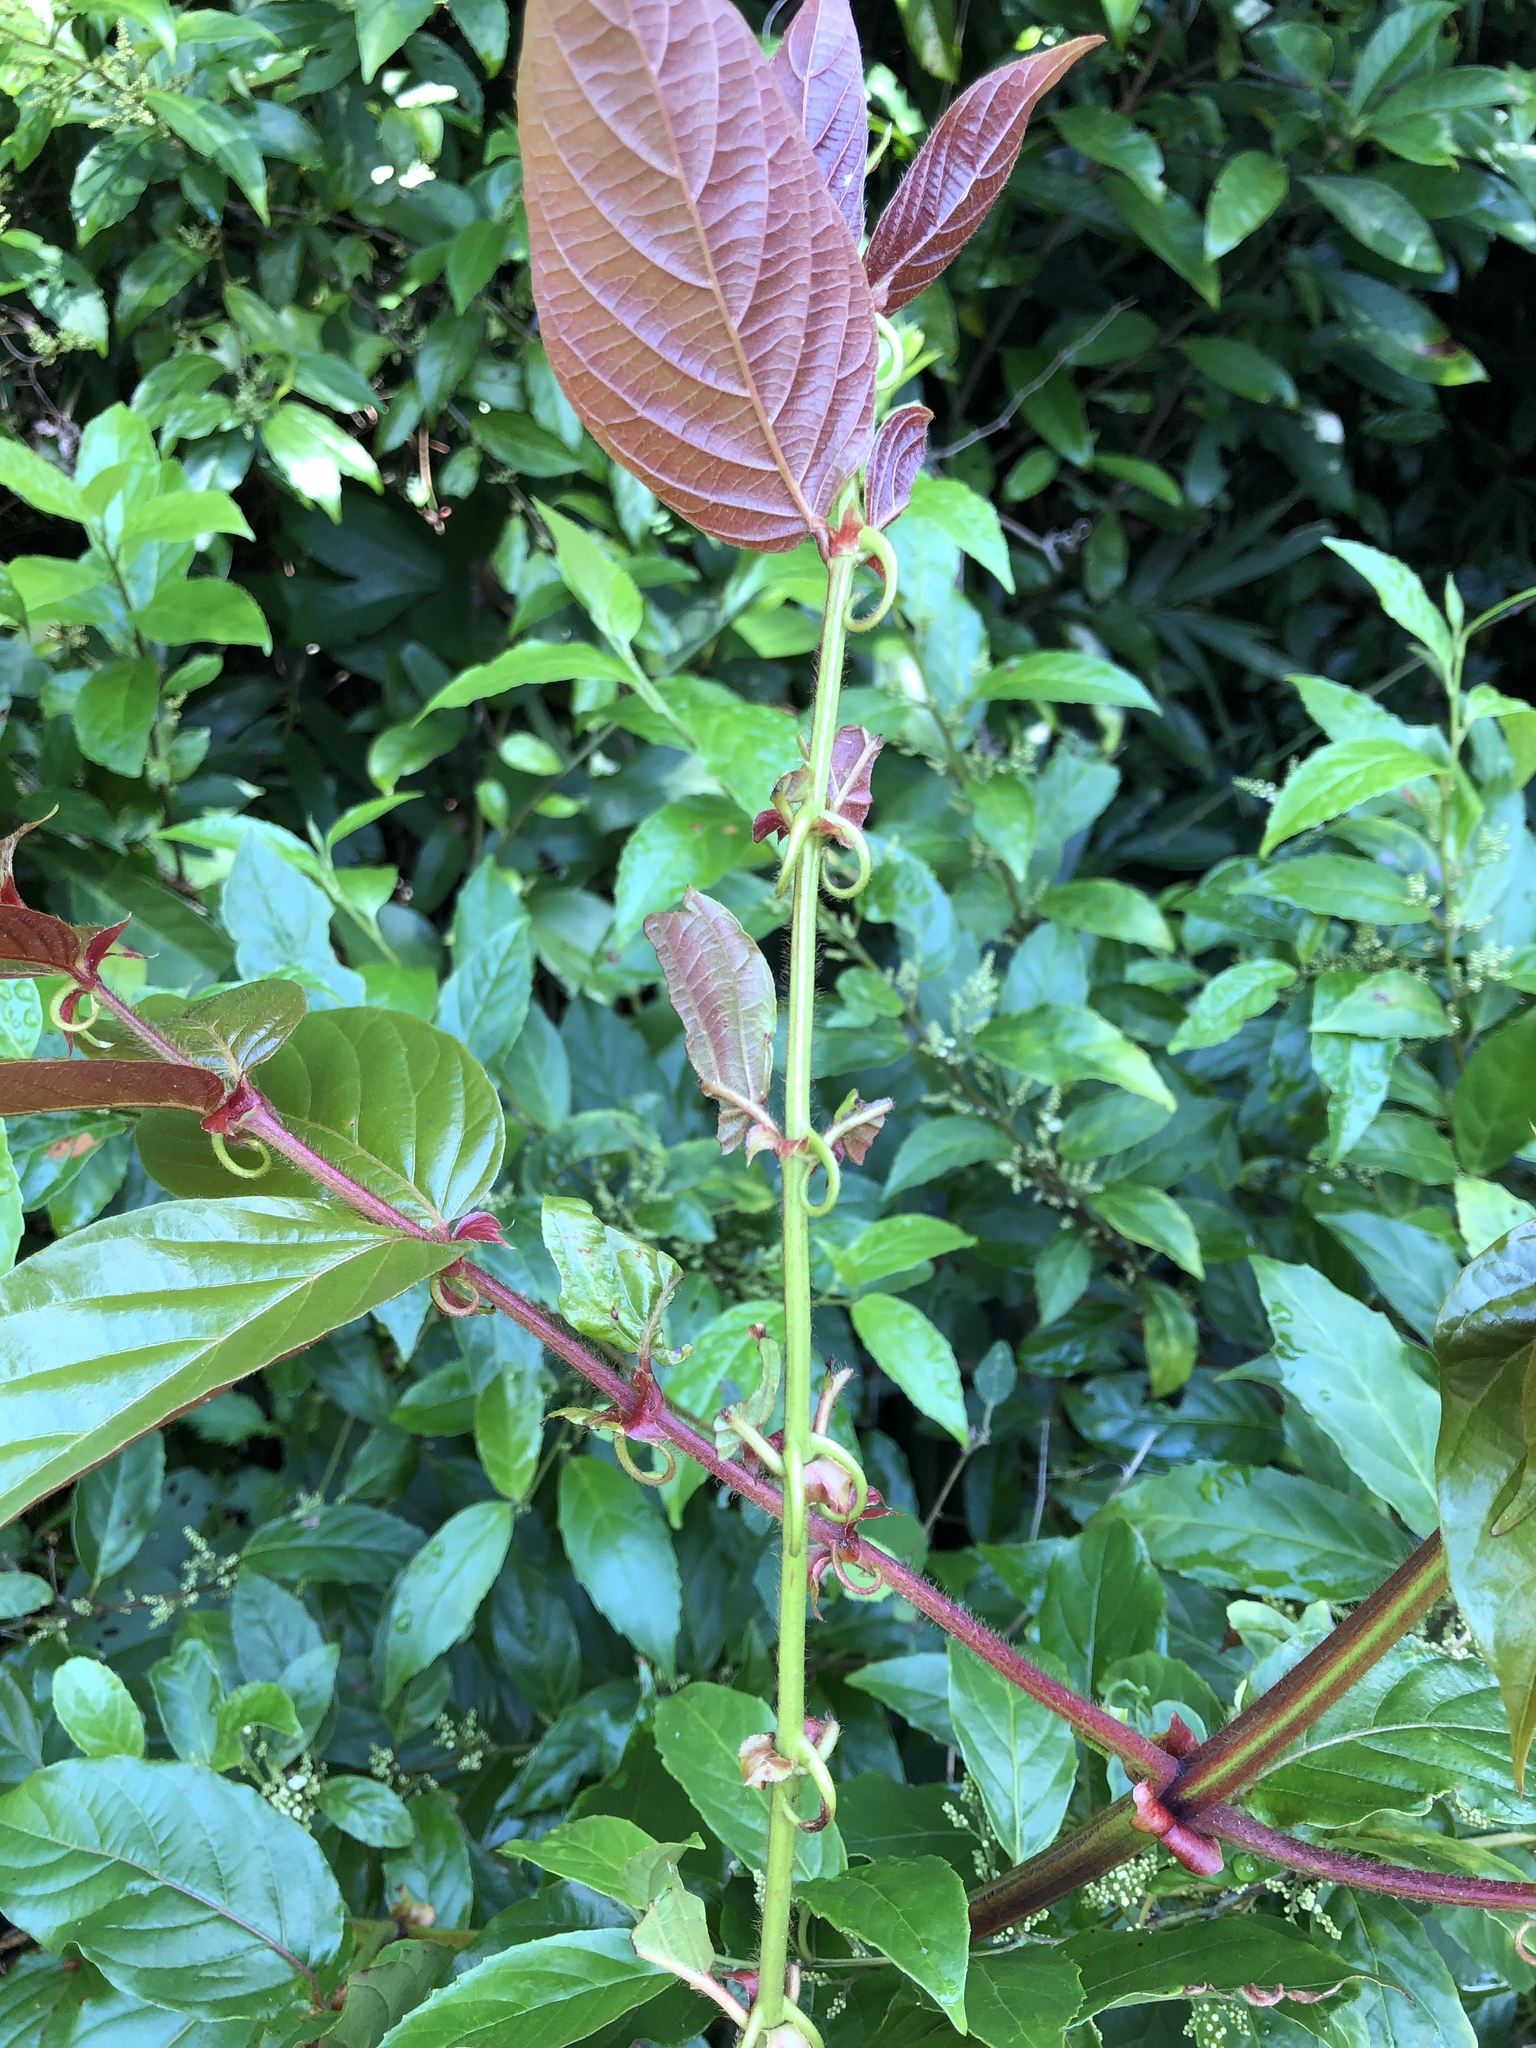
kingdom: Plantae
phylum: Tracheophyta
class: Magnoliopsida
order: Gentianales
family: Rubiaceae
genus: Uncaria
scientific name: Uncaria lanosa
